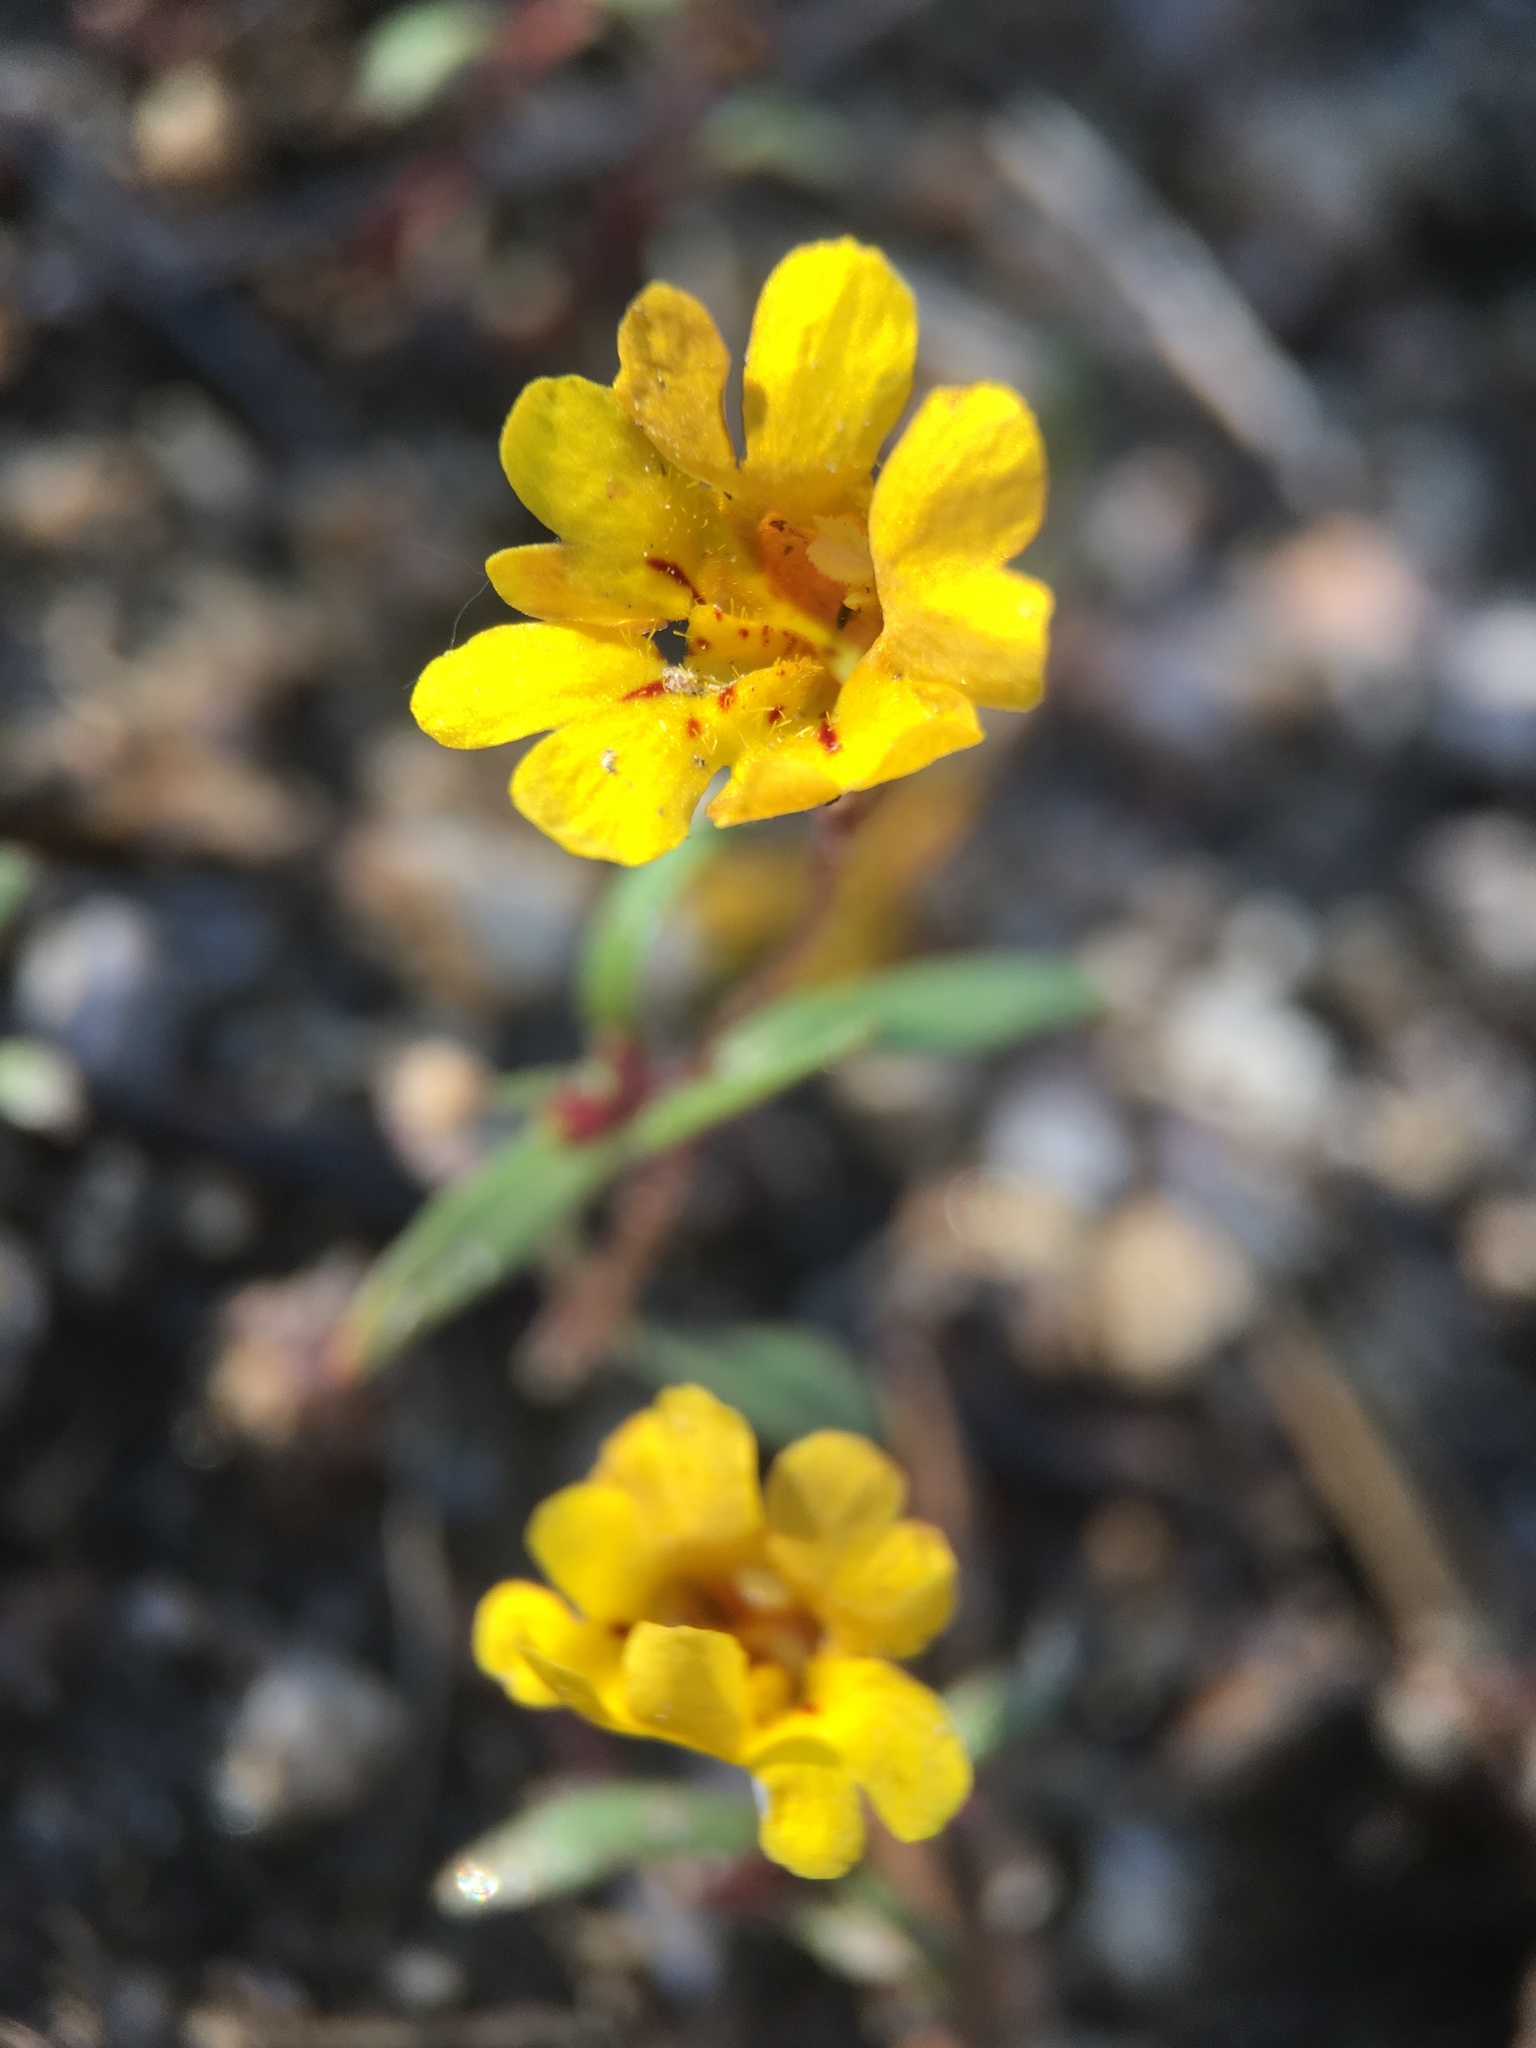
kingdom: Plantae
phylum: Tracheophyta
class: Magnoliopsida
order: Lamiales
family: Phrymaceae
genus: Erythranthe
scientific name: Erythranthe discolor
